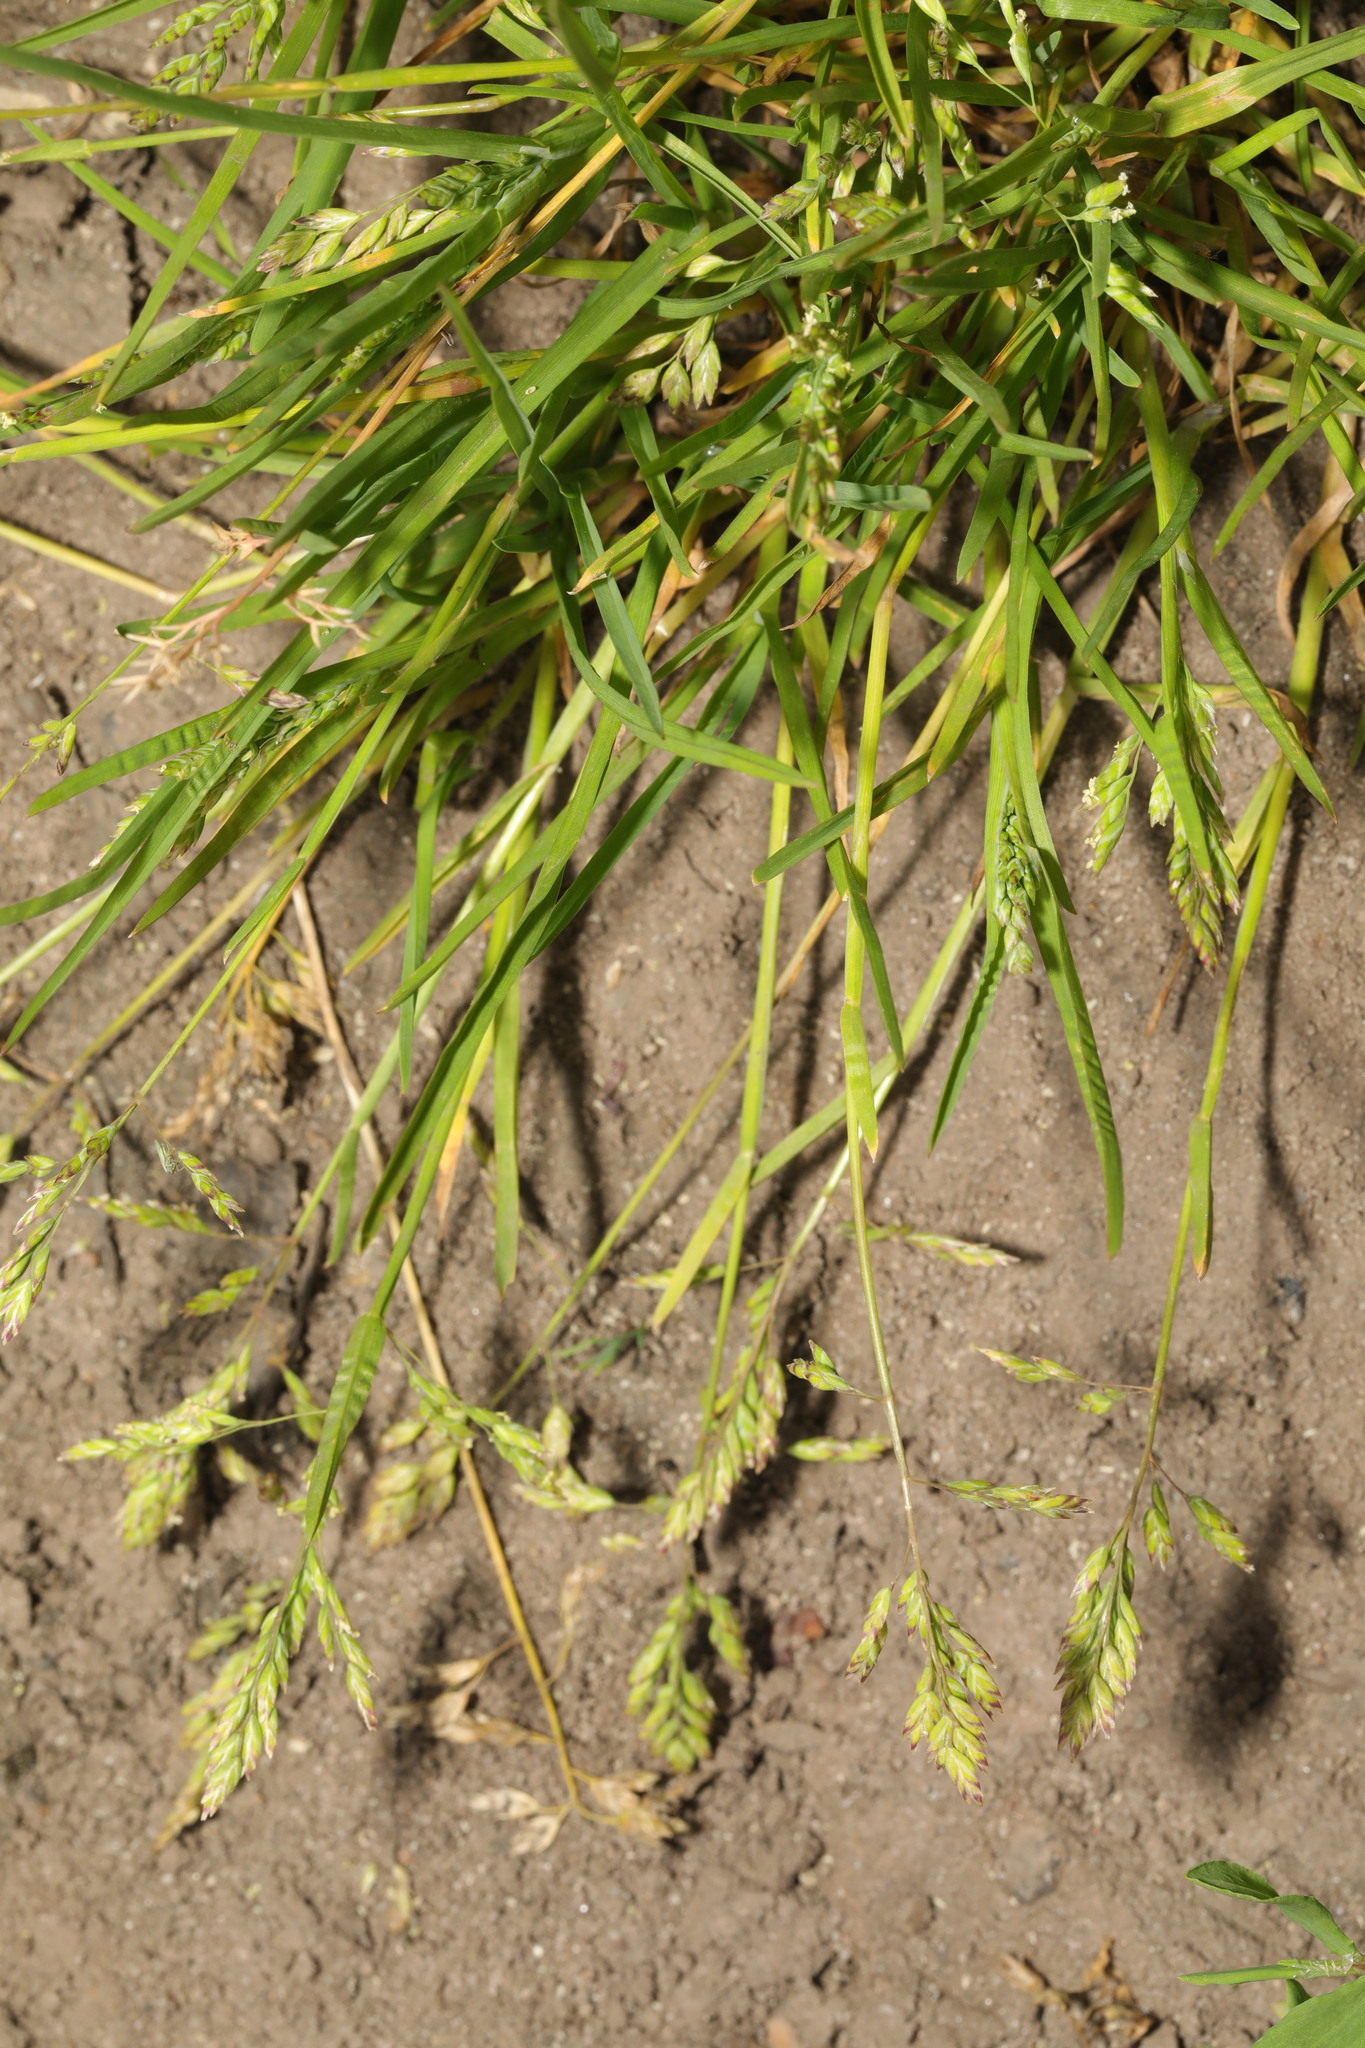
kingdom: Plantae
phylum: Tracheophyta
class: Liliopsida
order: Poales
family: Poaceae
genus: Poa
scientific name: Poa annua
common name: Annual bluegrass
